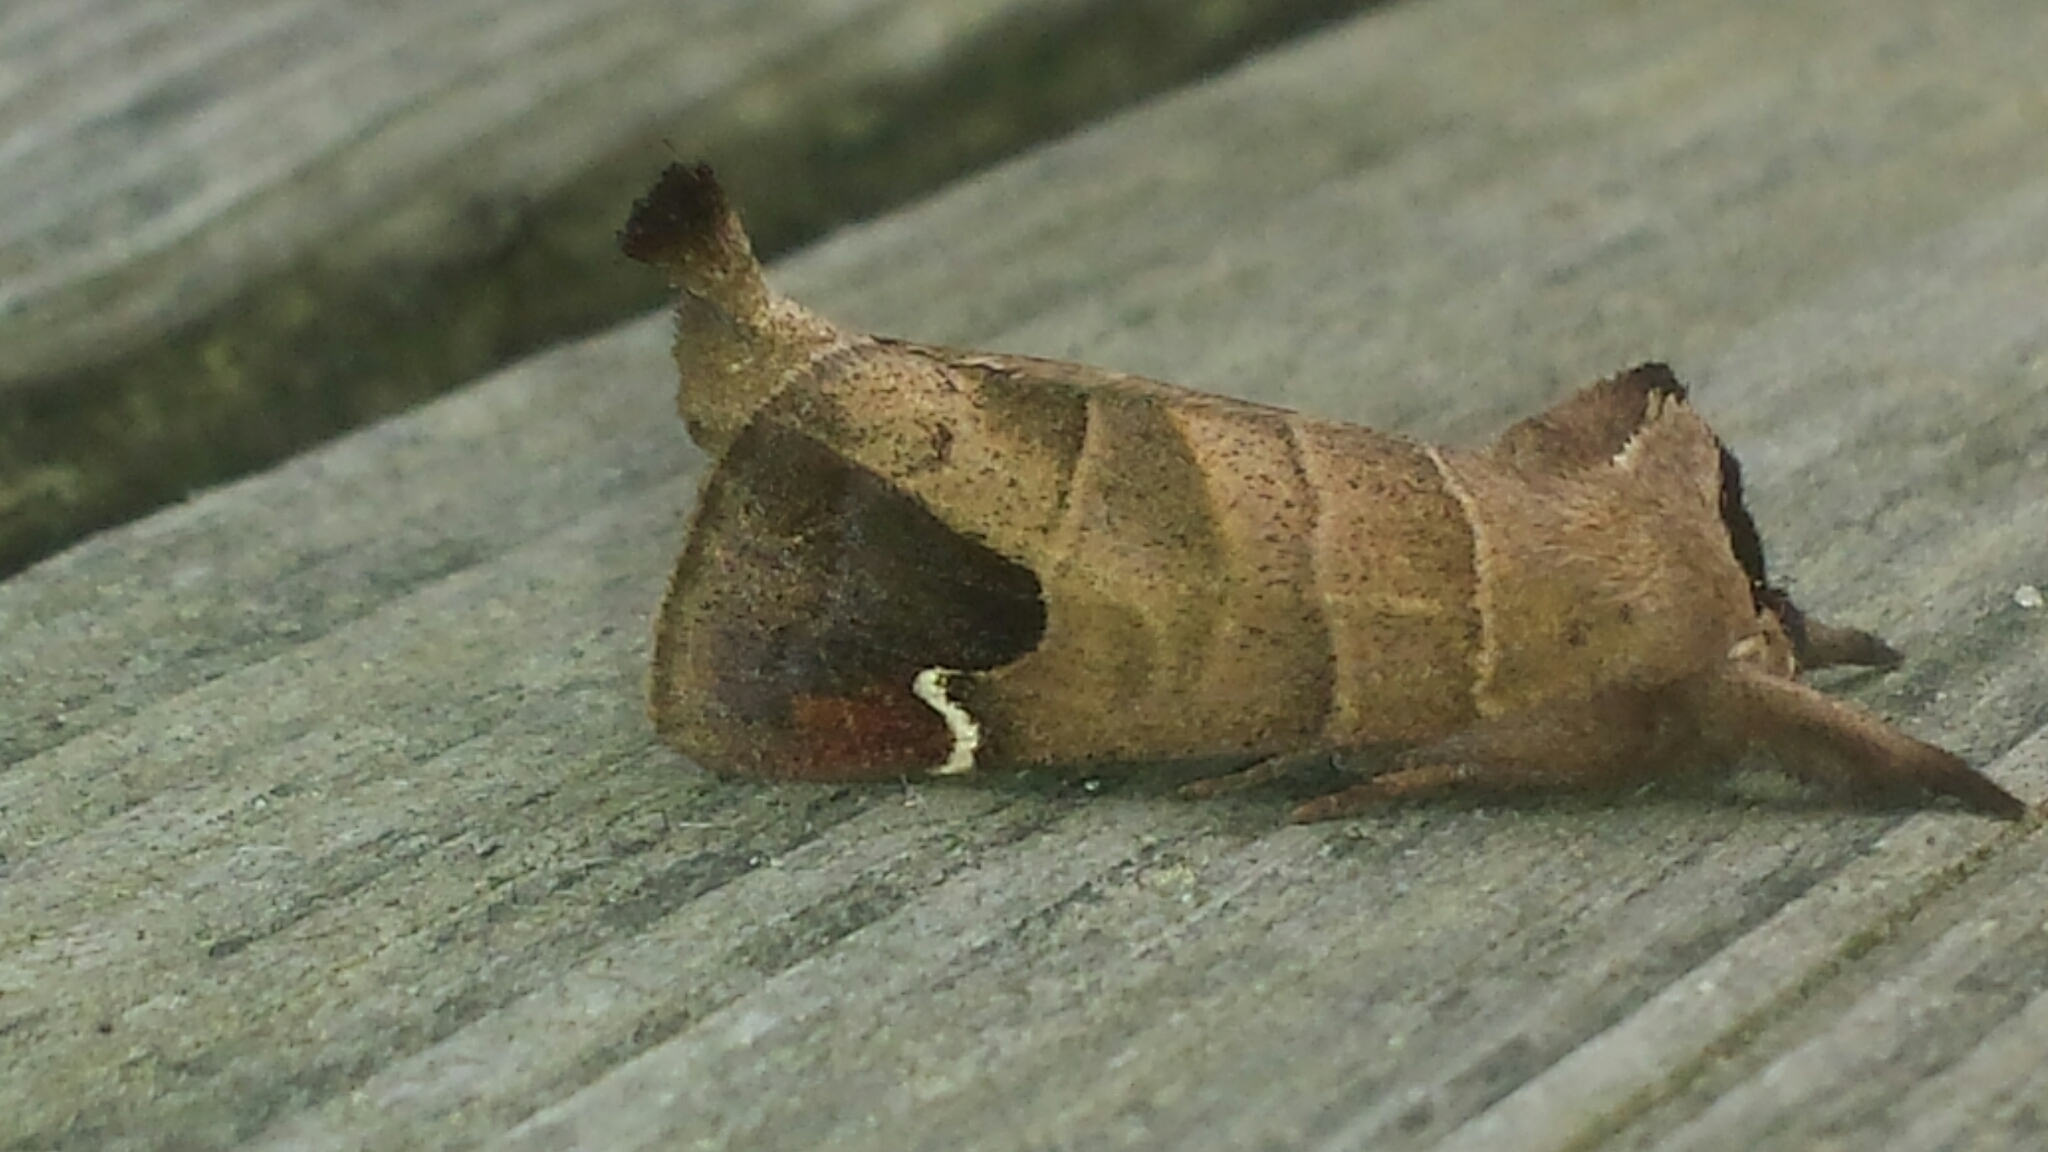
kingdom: Animalia
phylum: Arthropoda
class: Insecta
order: Lepidoptera
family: Notodontidae
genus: Clostera
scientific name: Clostera albosigma
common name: Sigmoid prominent
